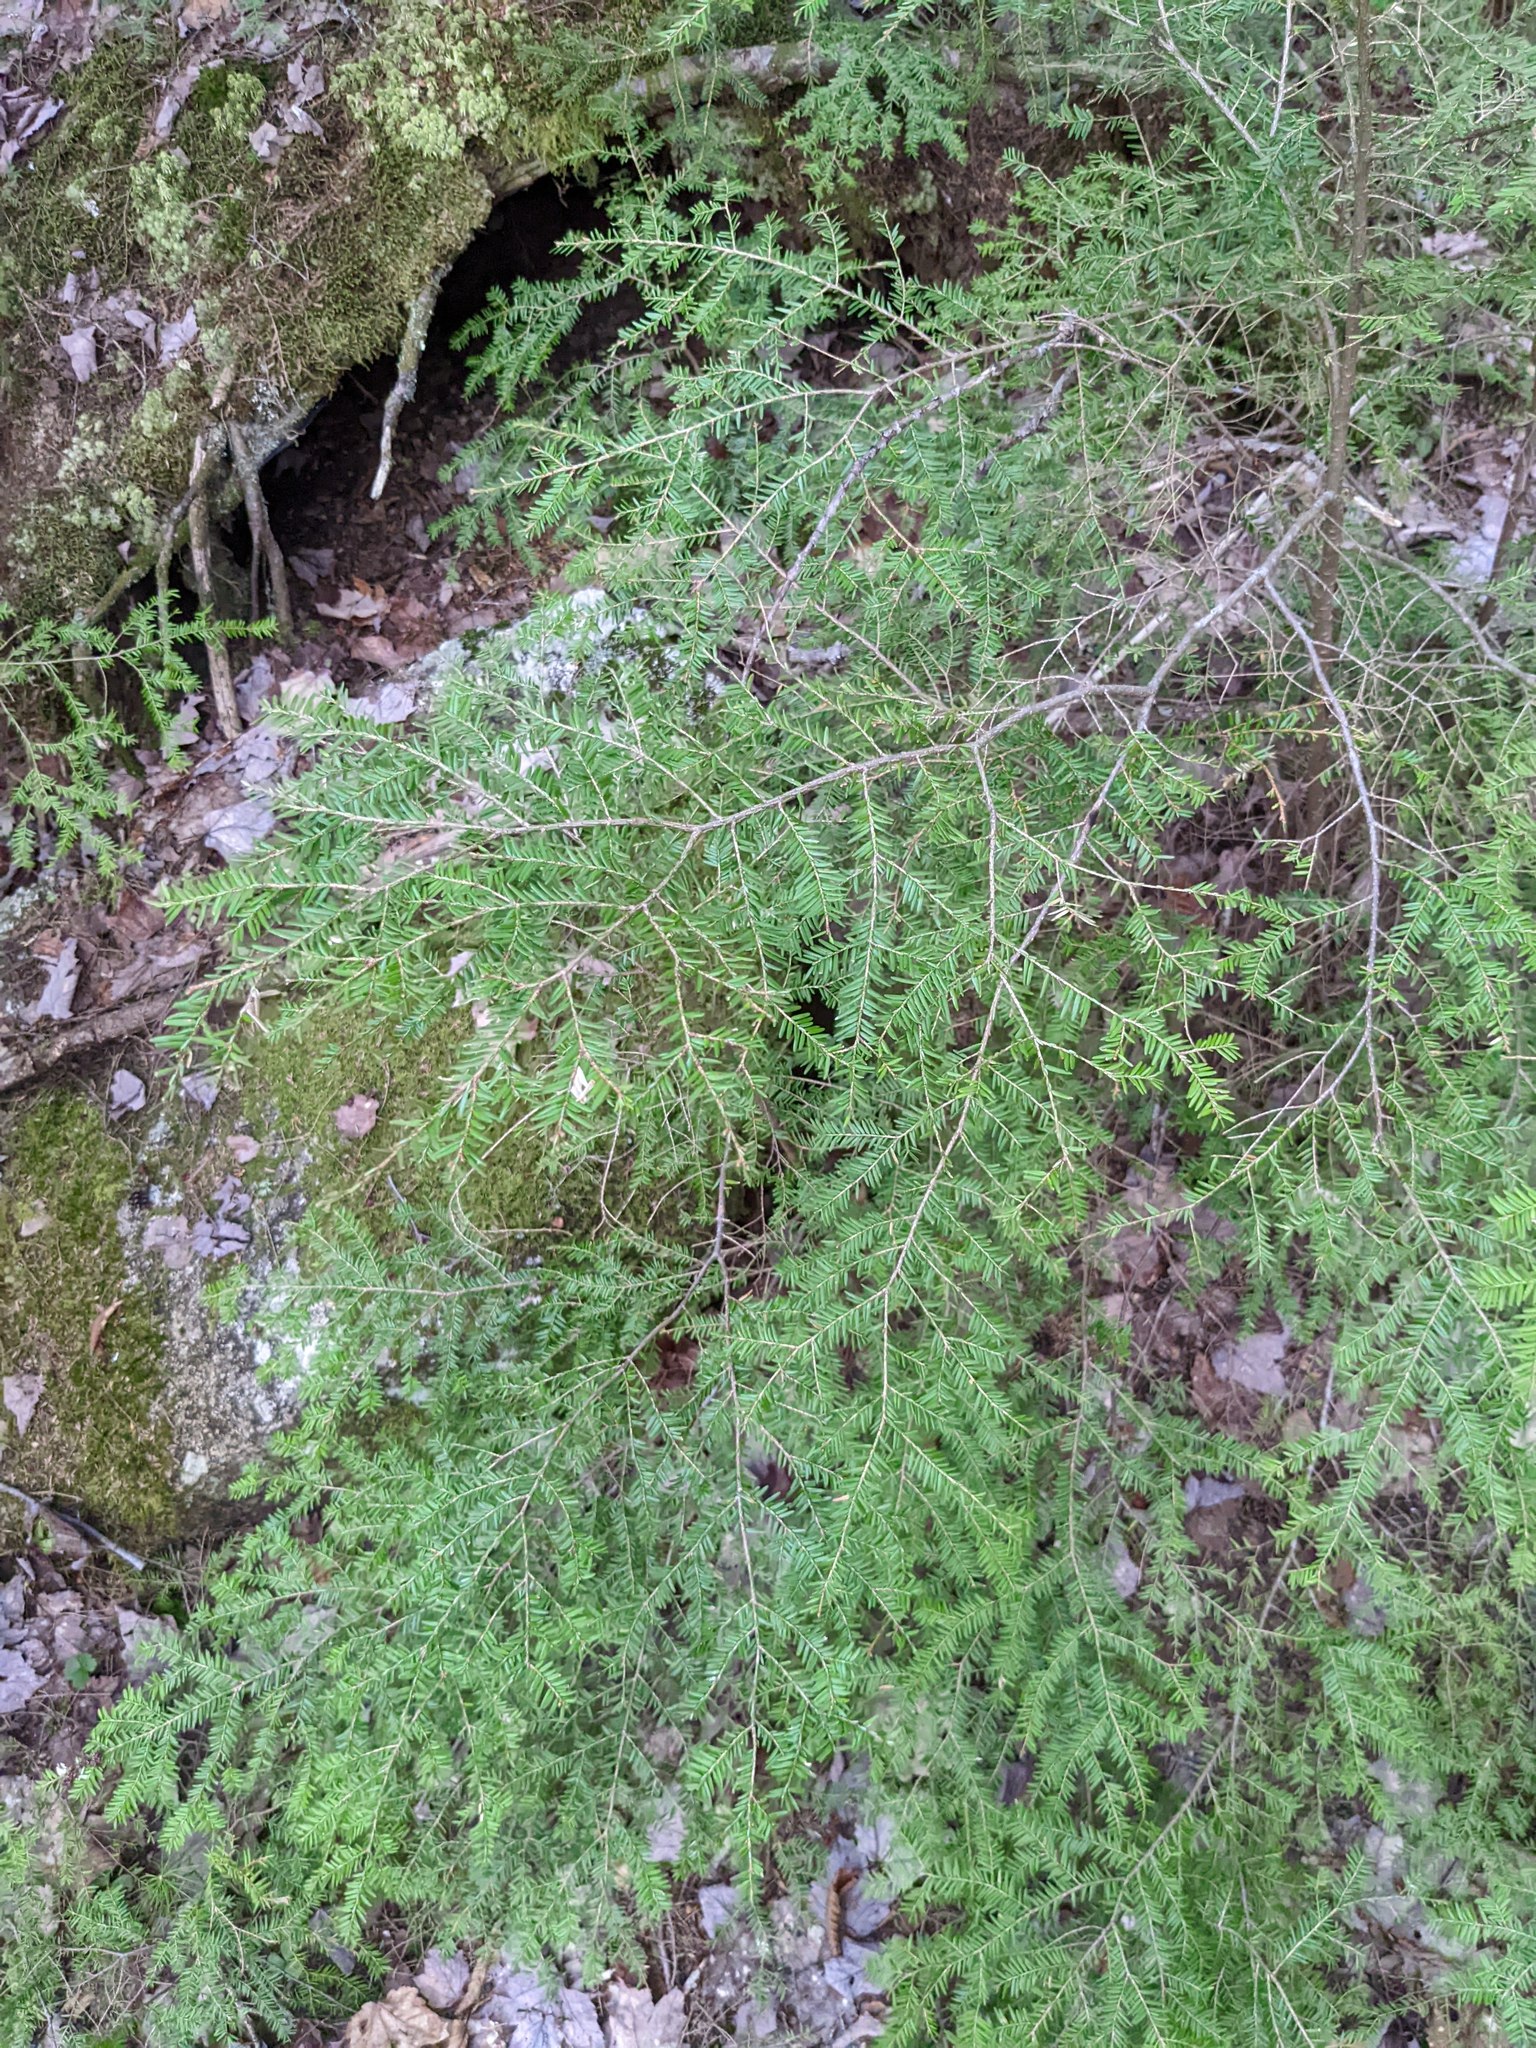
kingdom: Plantae
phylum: Tracheophyta
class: Pinopsida
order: Pinales
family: Pinaceae
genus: Tsuga
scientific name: Tsuga canadensis
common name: Eastern hemlock
